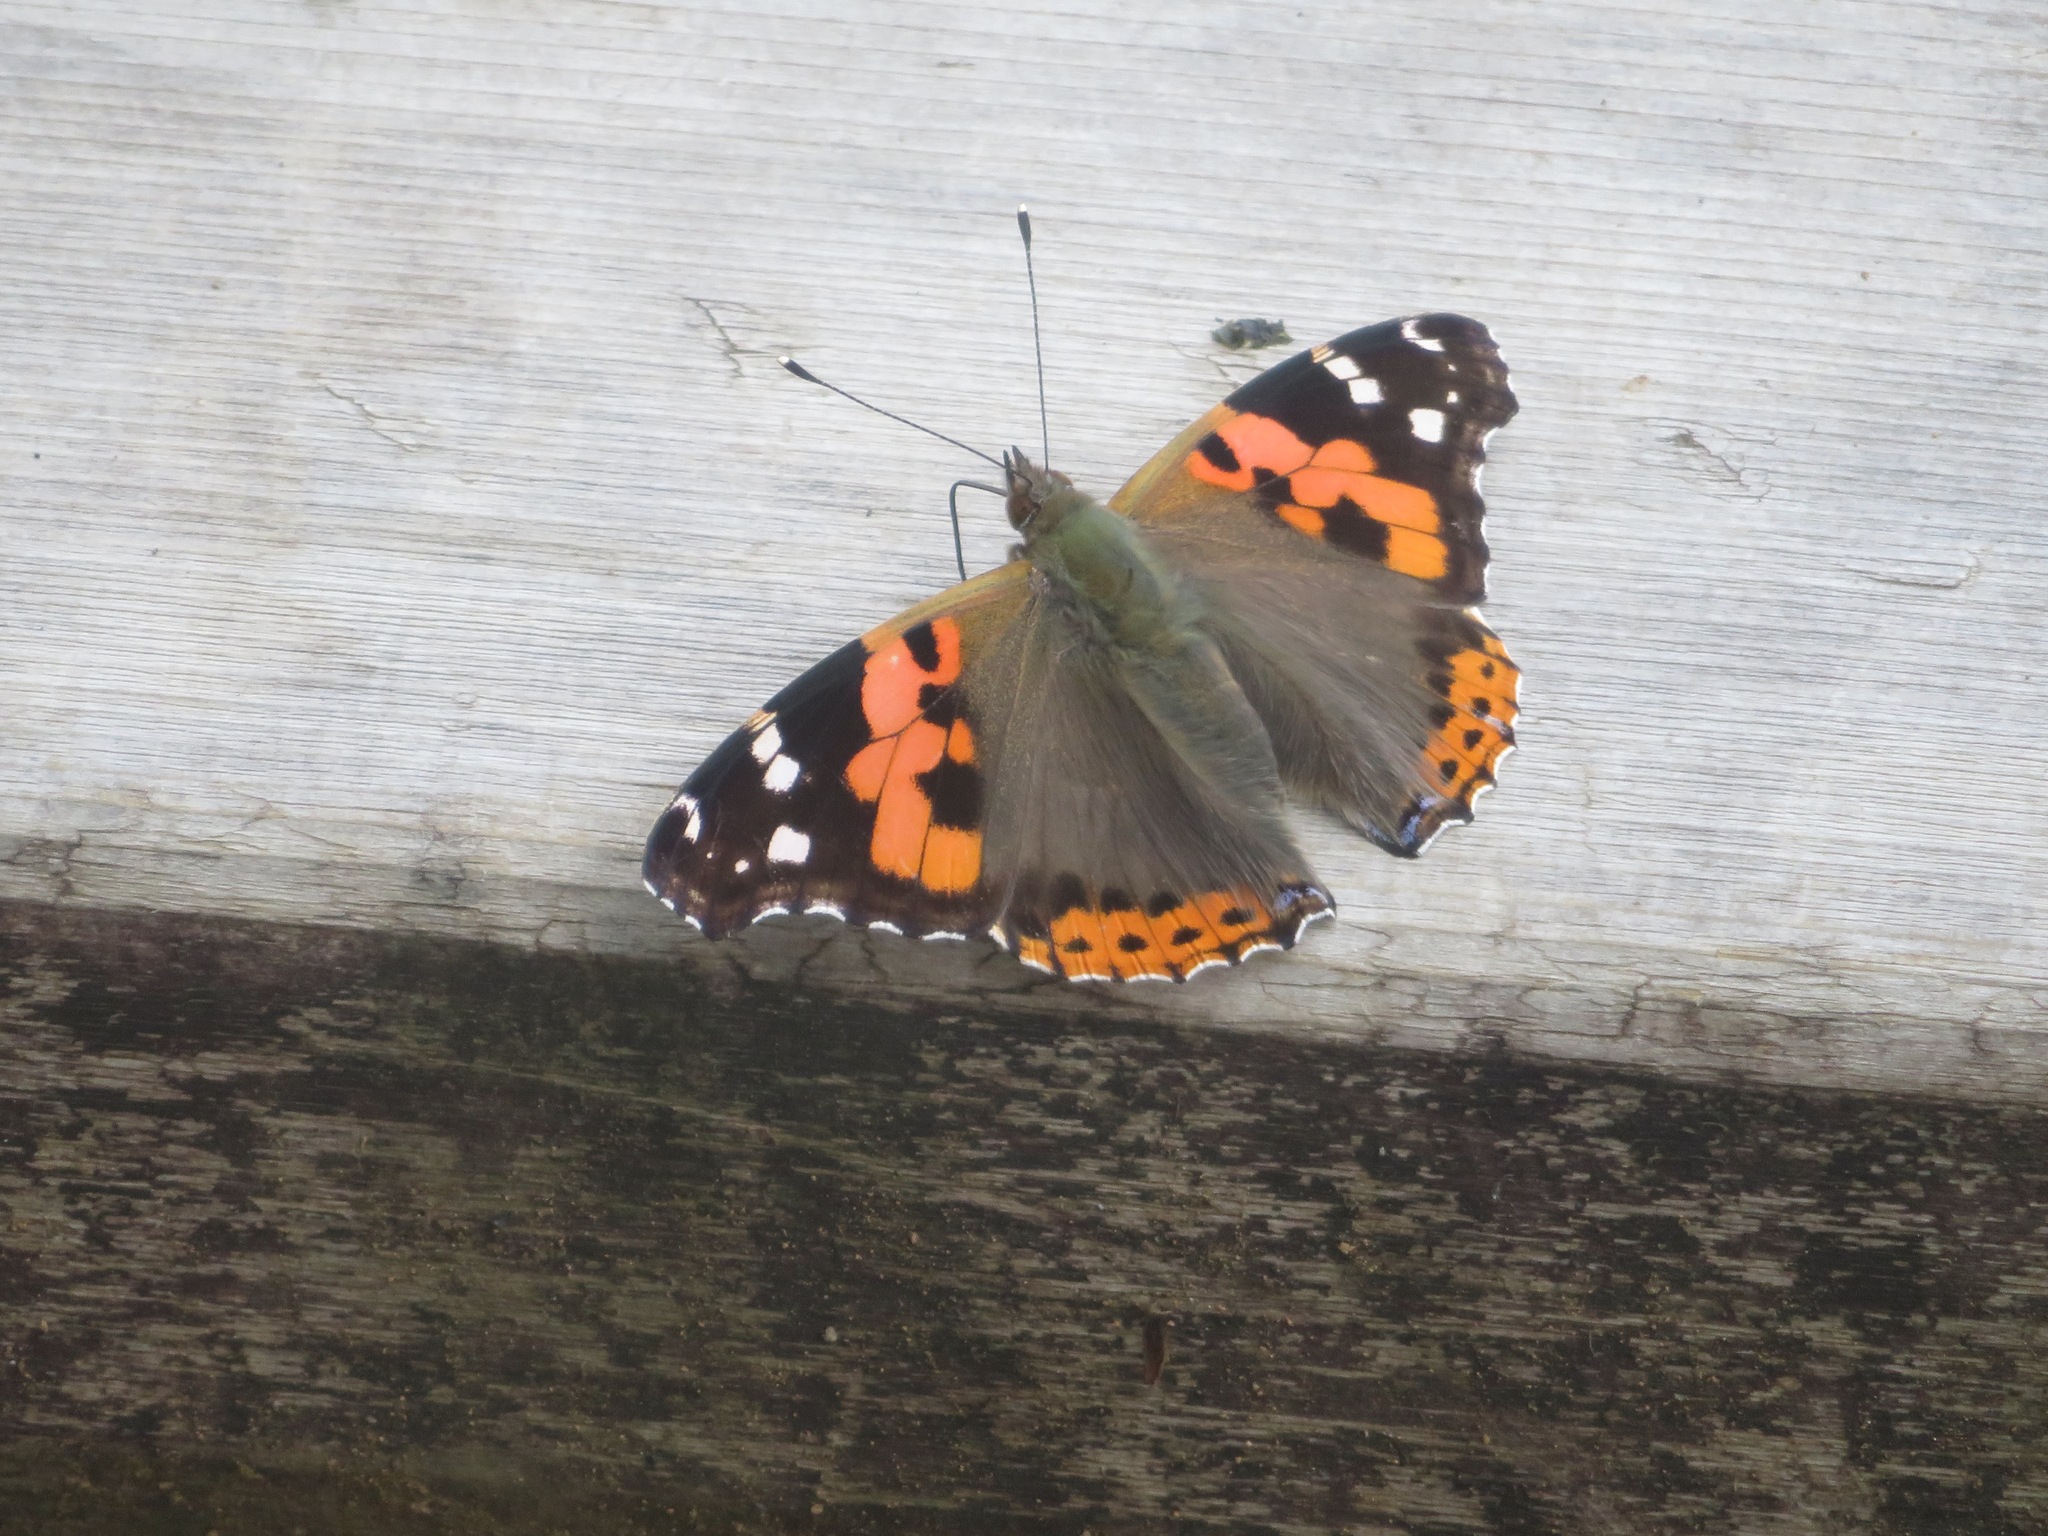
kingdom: Animalia
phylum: Arthropoda
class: Insecta
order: Lepidoptera
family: Nymphalidae
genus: Vanessa
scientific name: Vanessa indica
